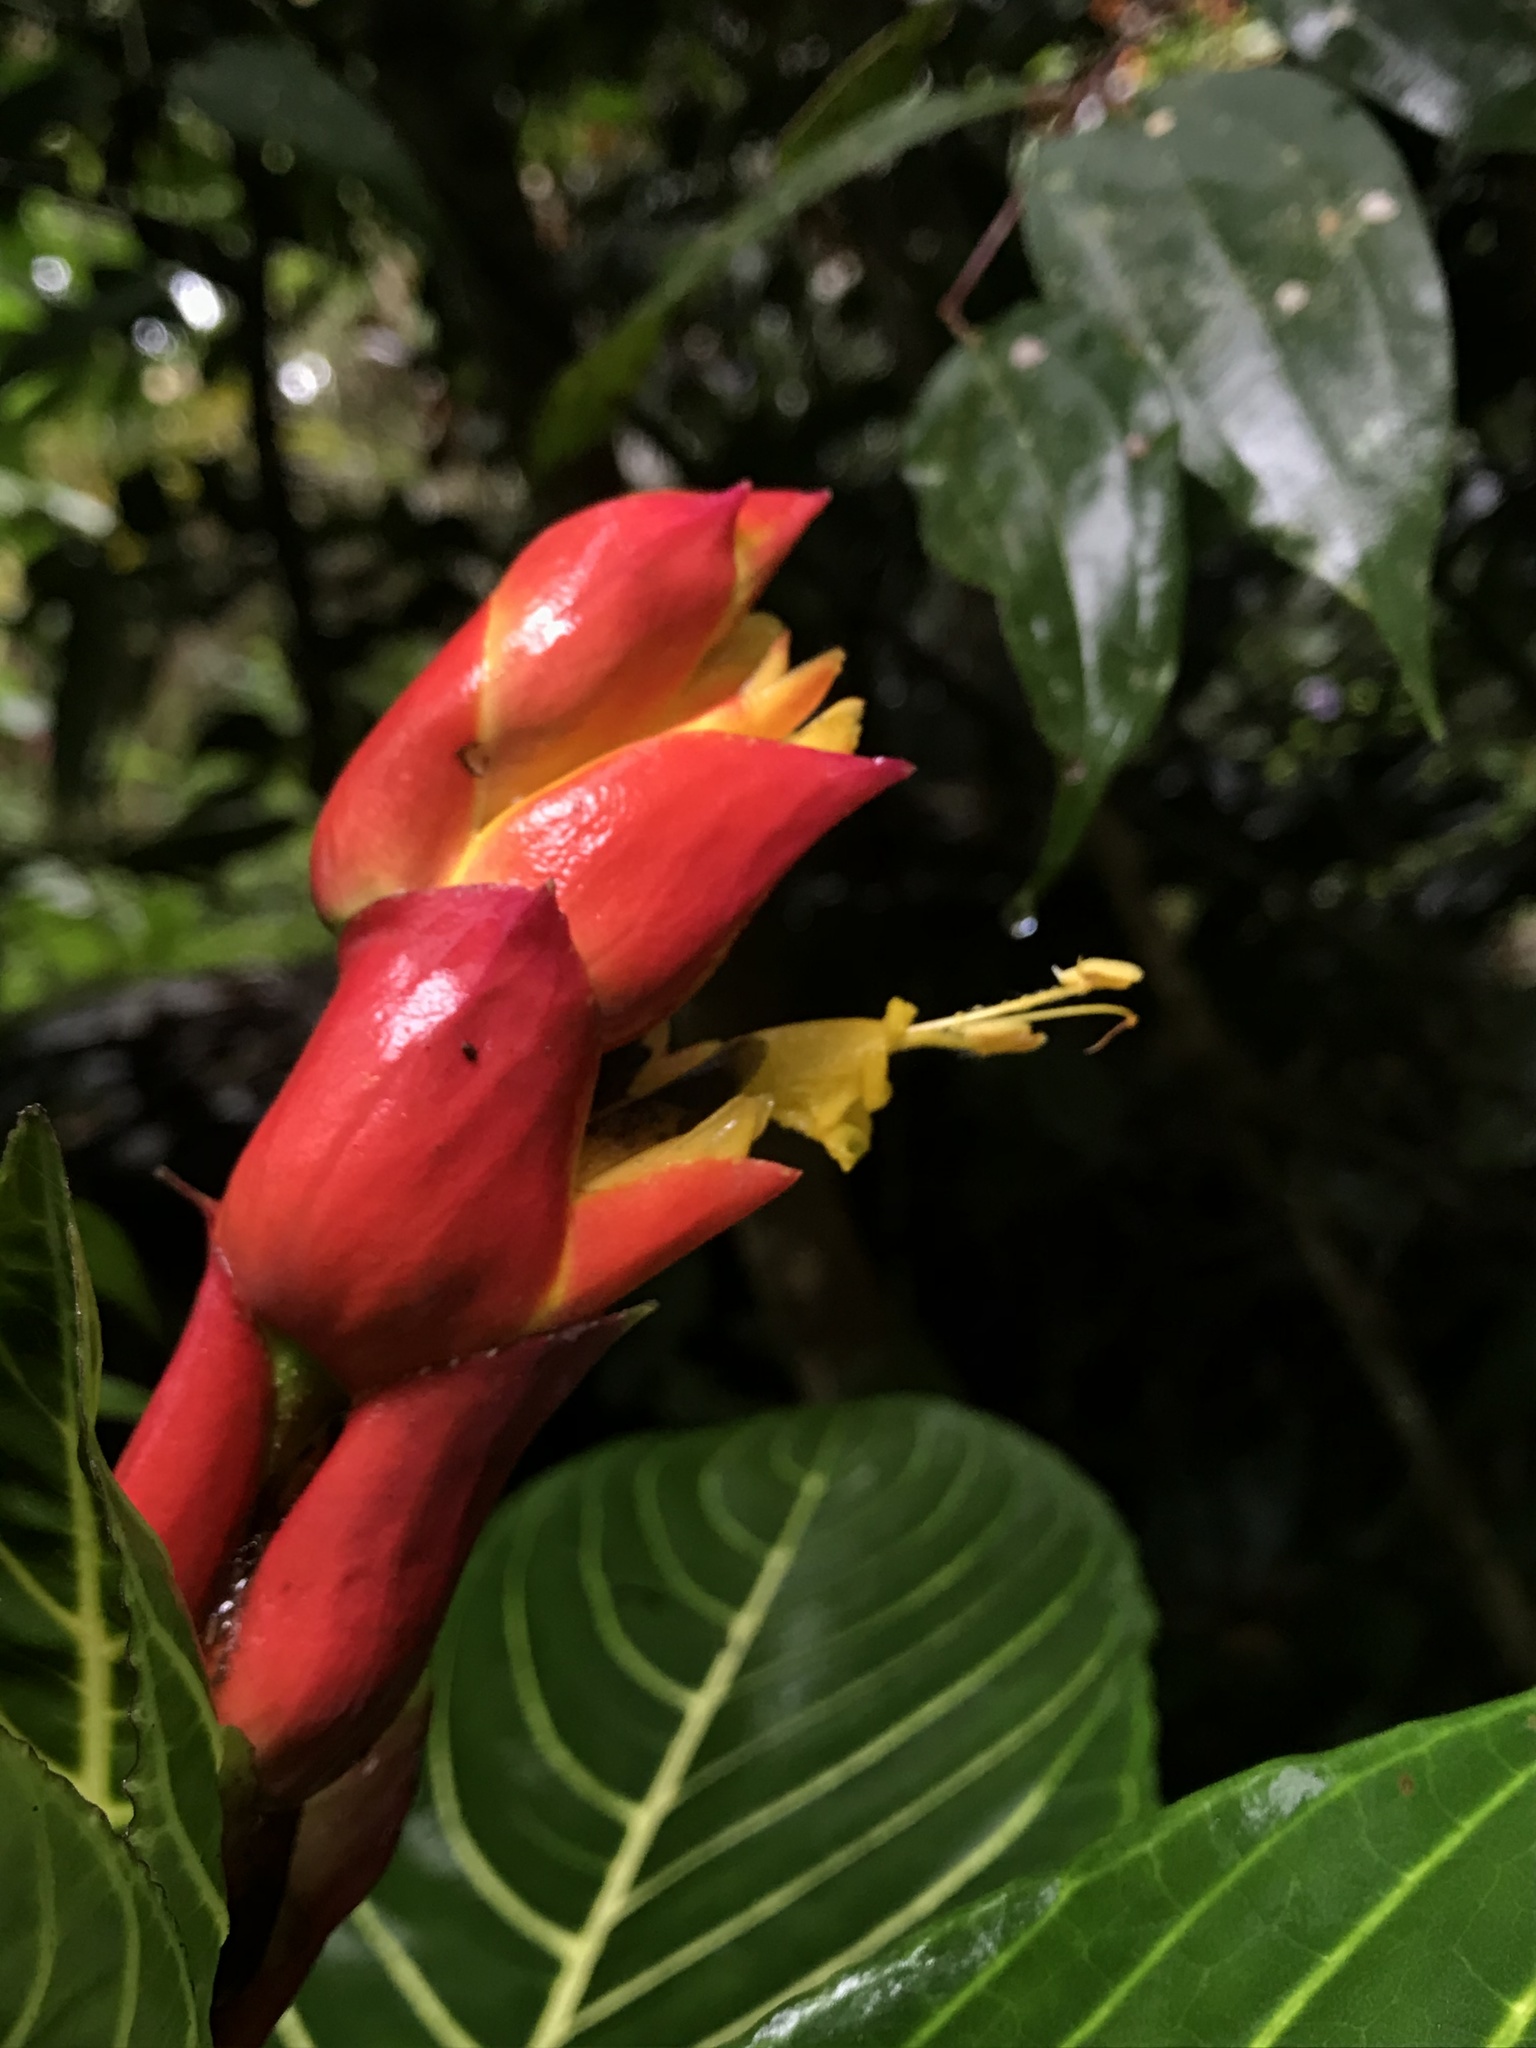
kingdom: Plantae
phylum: Tracheophyta
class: Magnoliopsida
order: Lamiales
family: Acanthaceae
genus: Sanchezia
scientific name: Sanchezia oblonga
